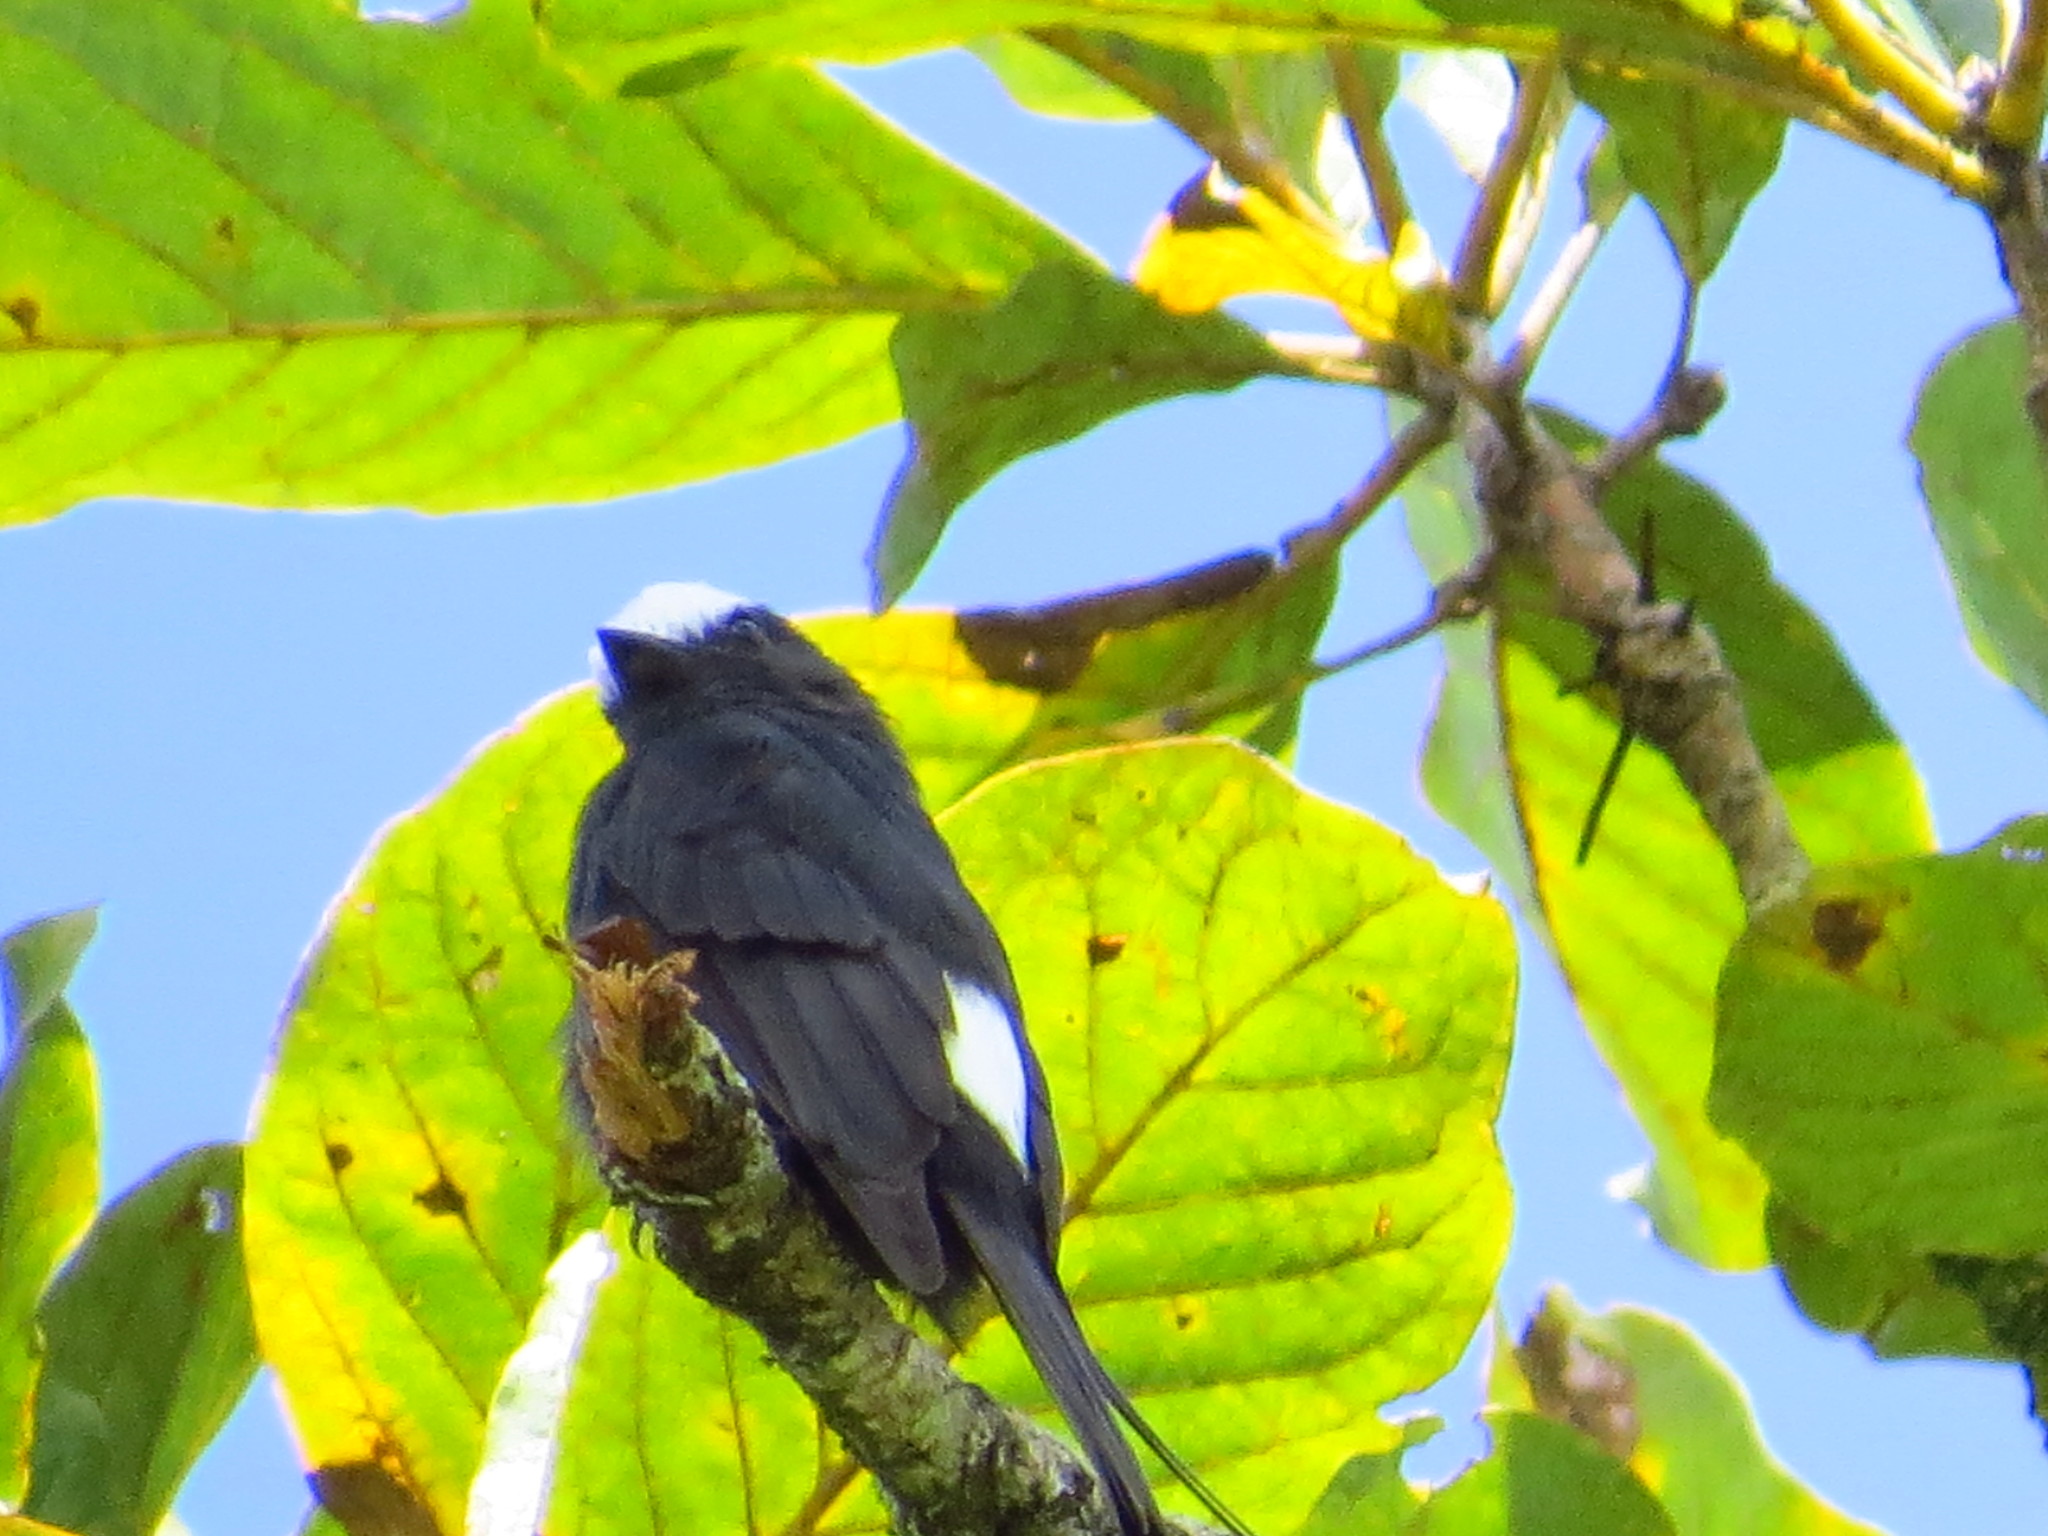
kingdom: Animalia
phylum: Chordata
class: Aves
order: Passeriformes
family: Tyrannidae
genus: Colonia
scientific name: Colonia colonus
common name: Long-tailed tyrant
